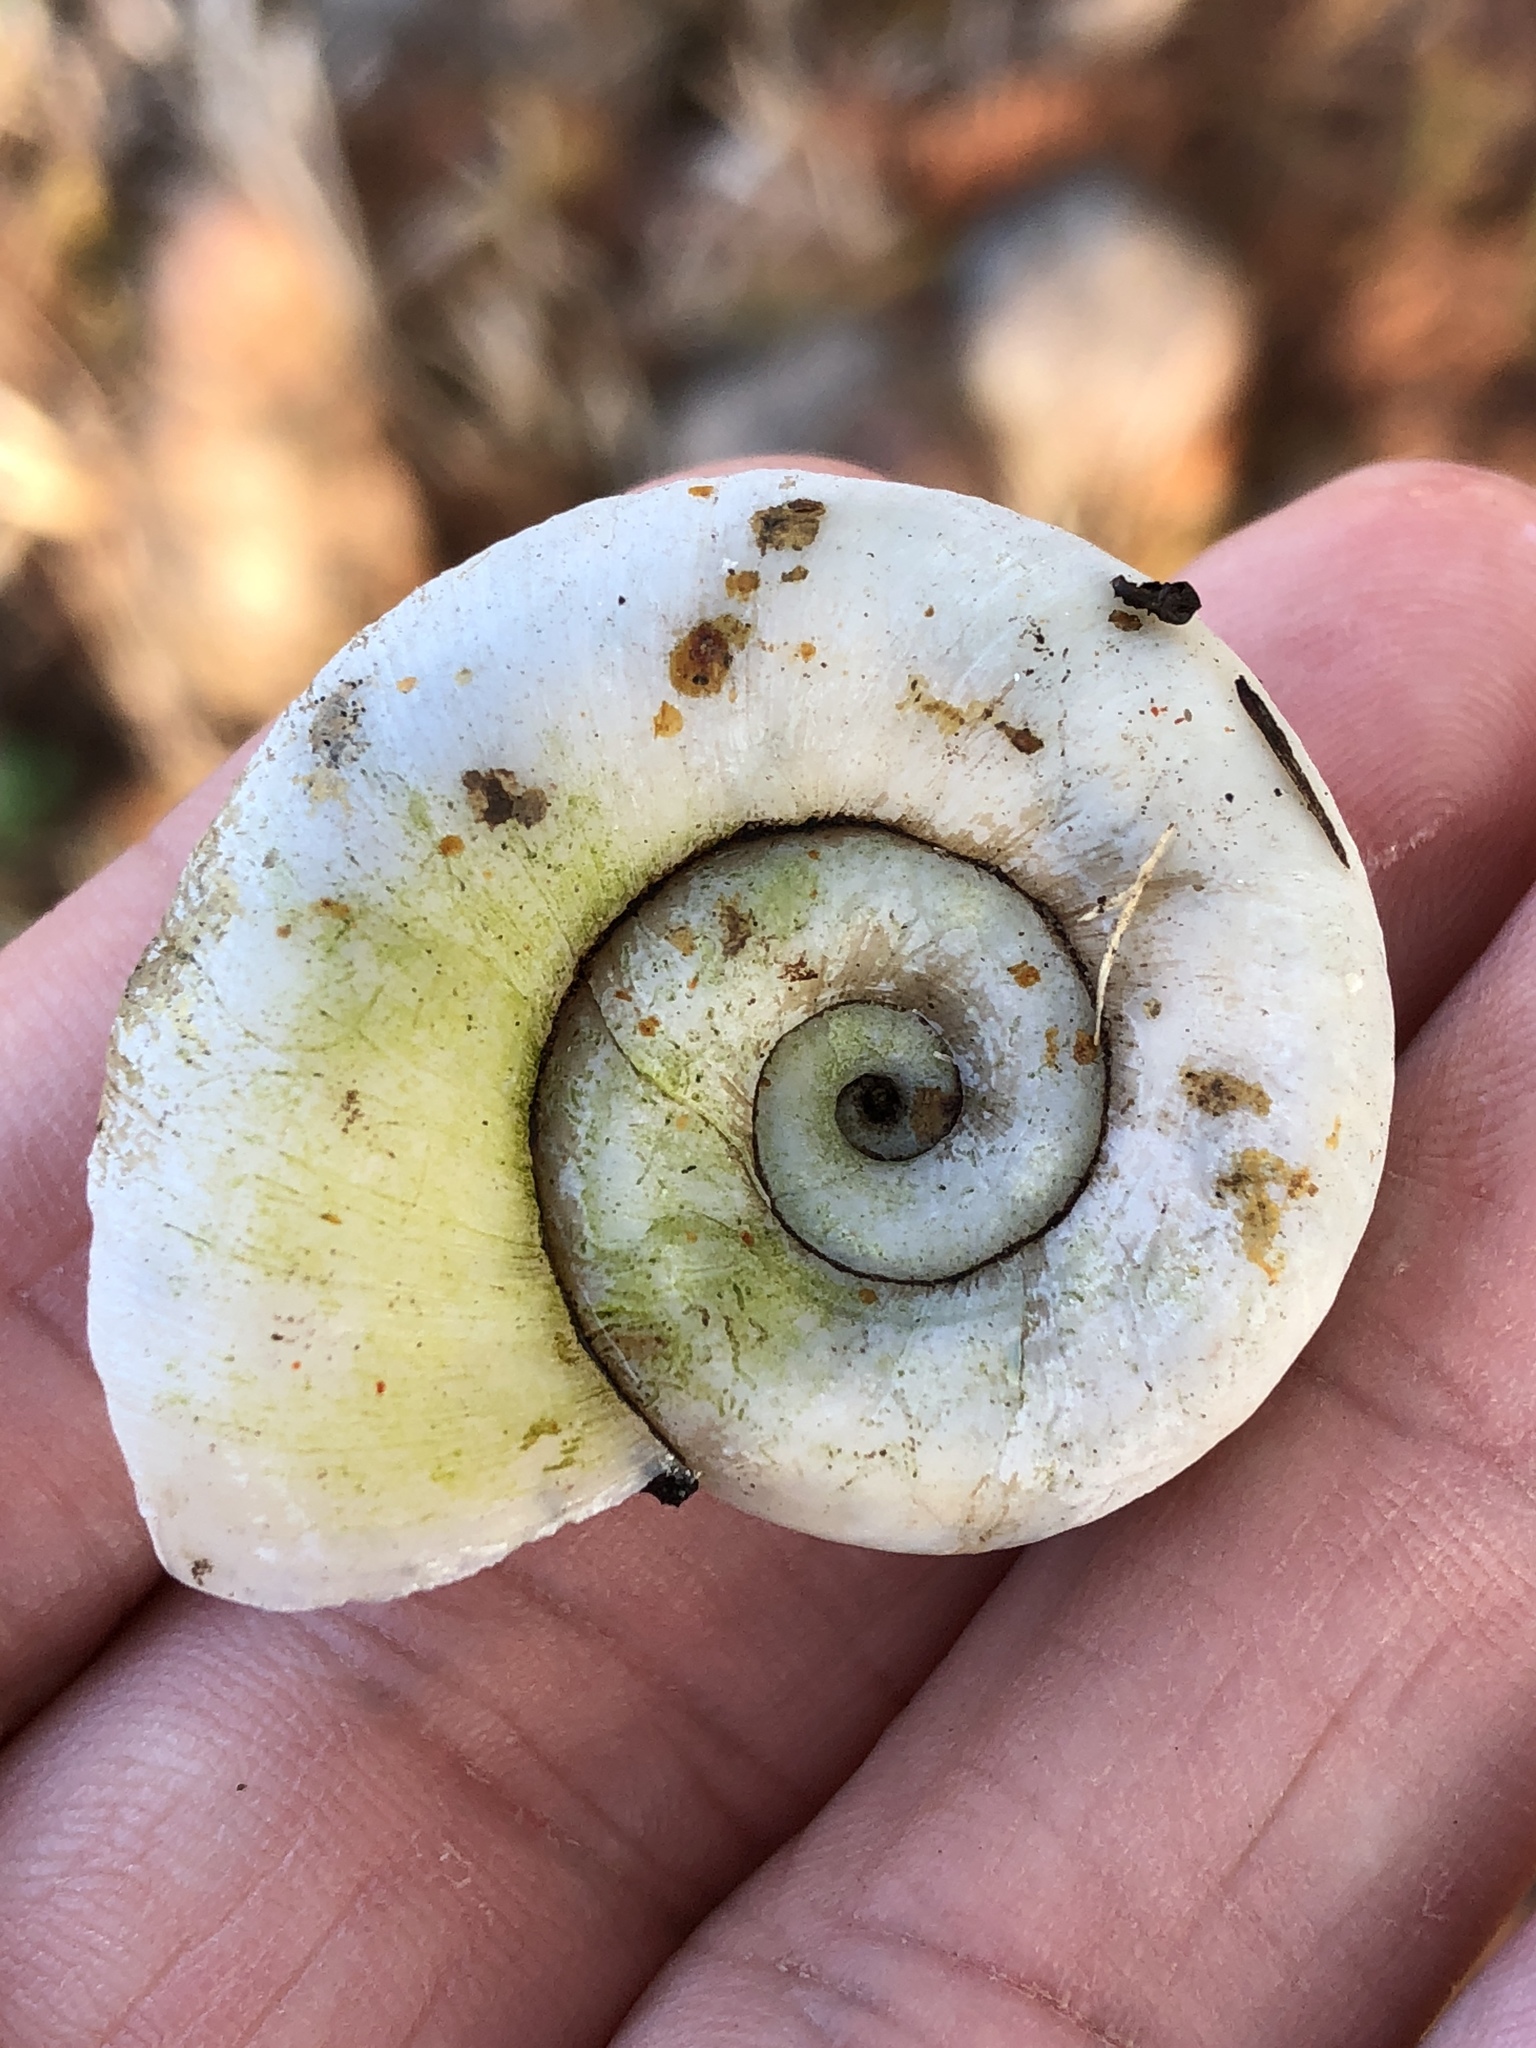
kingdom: Animalia
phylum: Mollusca
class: Gastropoda
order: Architaenioglossa
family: Ampullariidae
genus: Marisa
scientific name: Marisa cornuarietis
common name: Giant ramshorn snail
